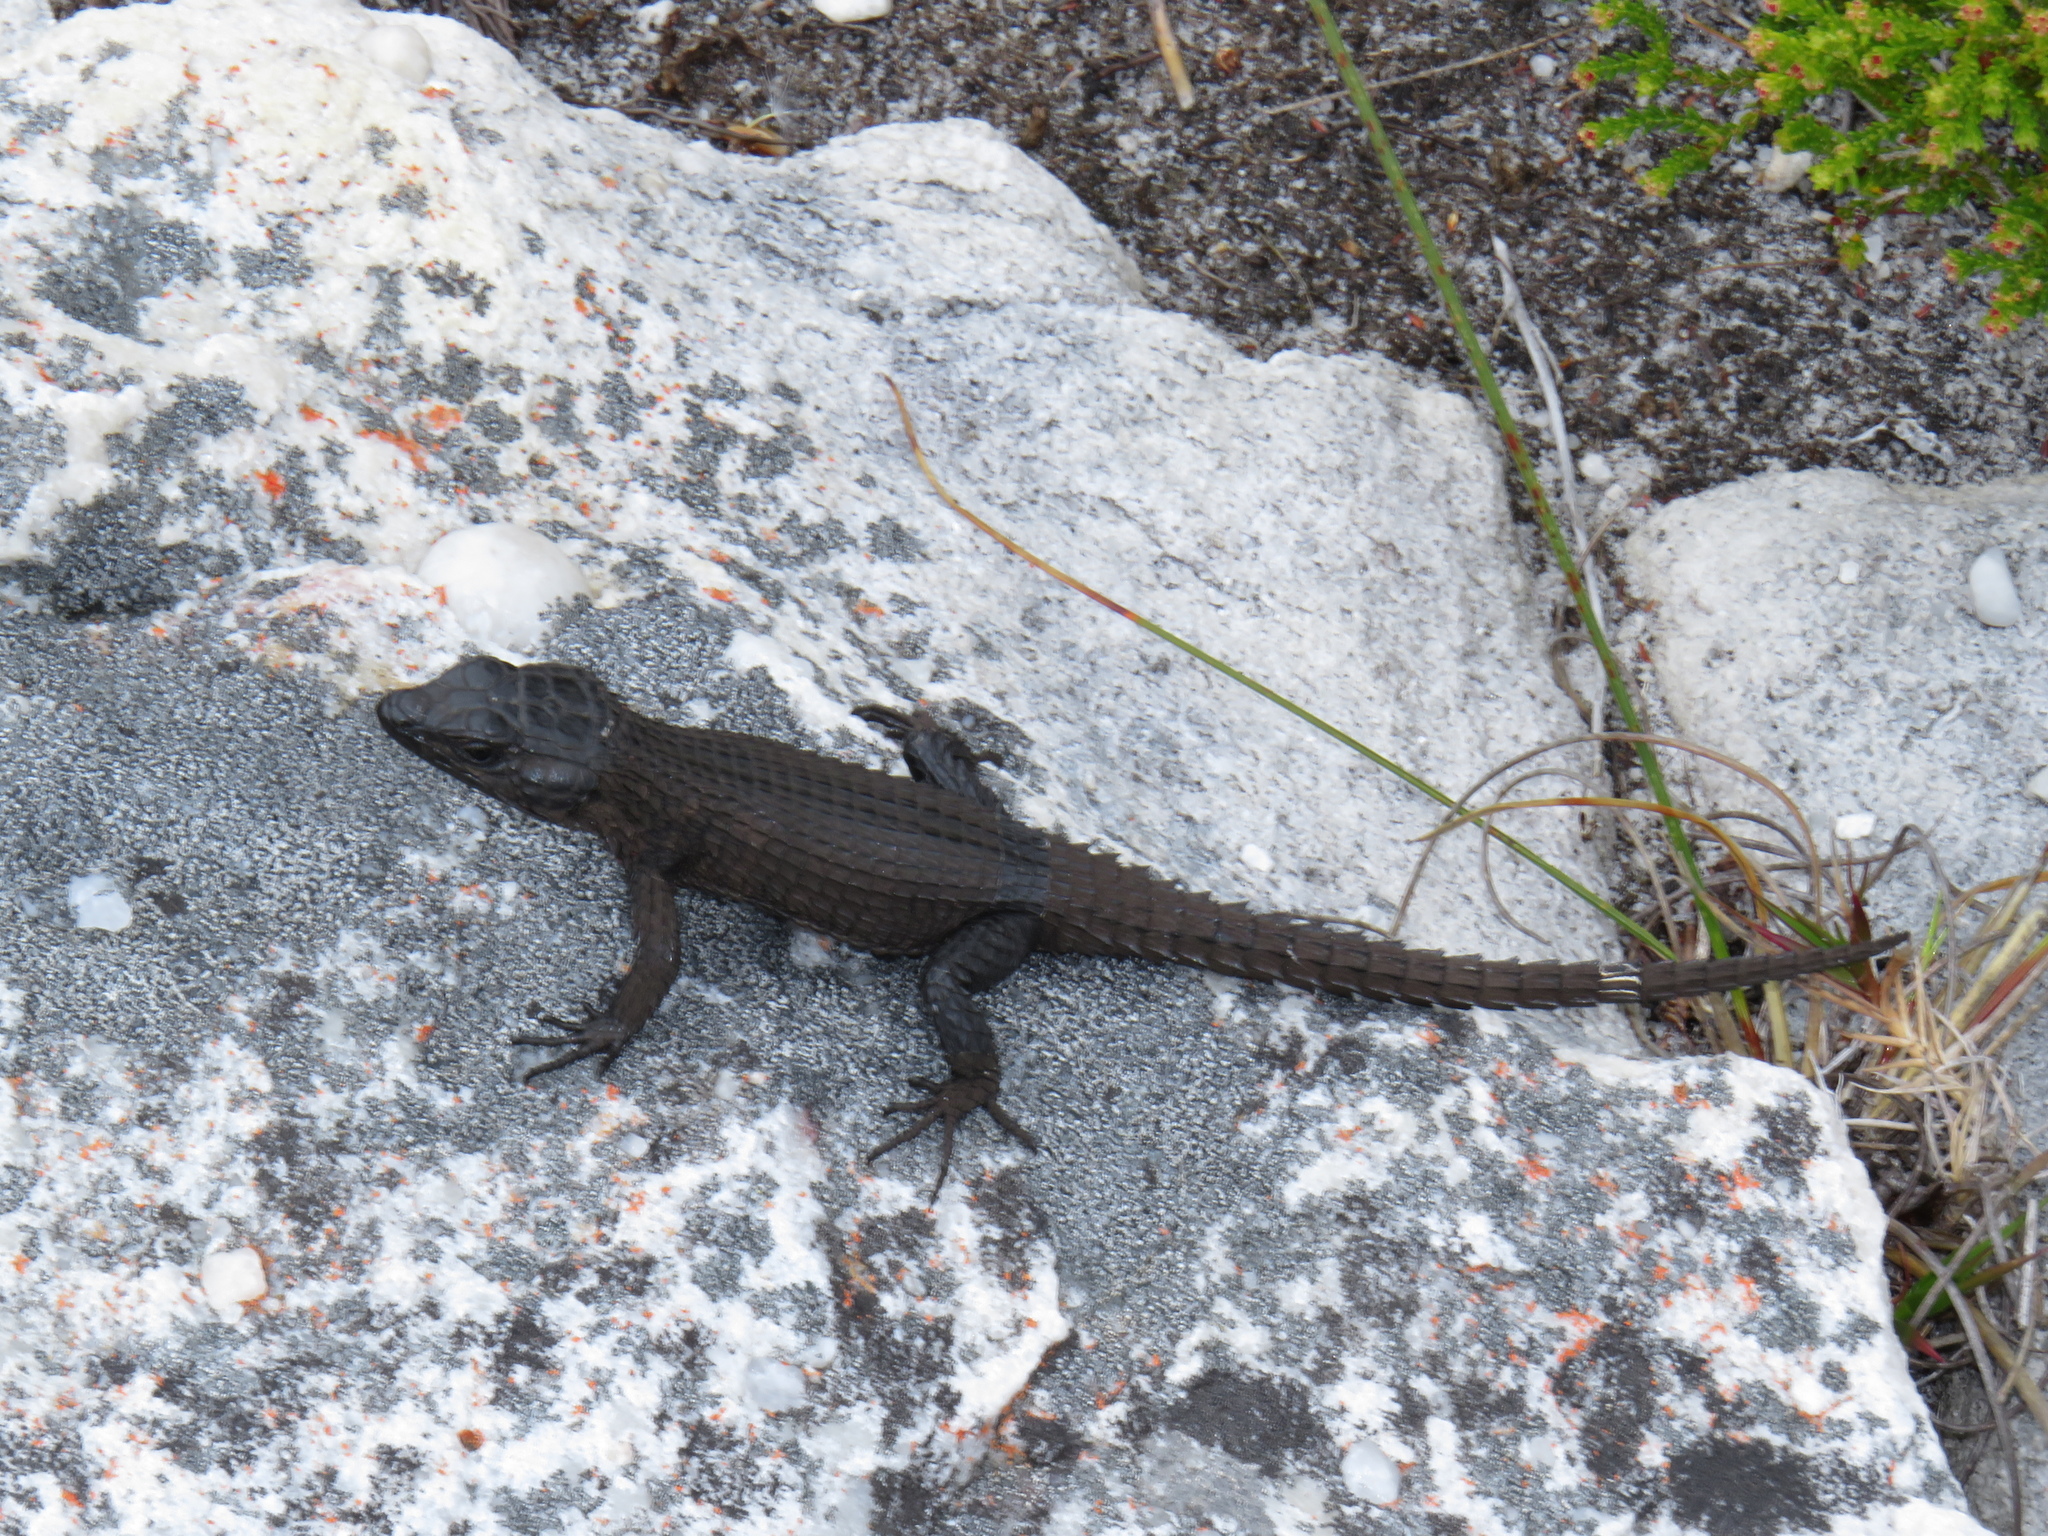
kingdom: Animalia
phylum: Chordata
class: Squamata
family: Cordylidae
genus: Cordylus
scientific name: Cordylus niger
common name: Black girdled lizard
